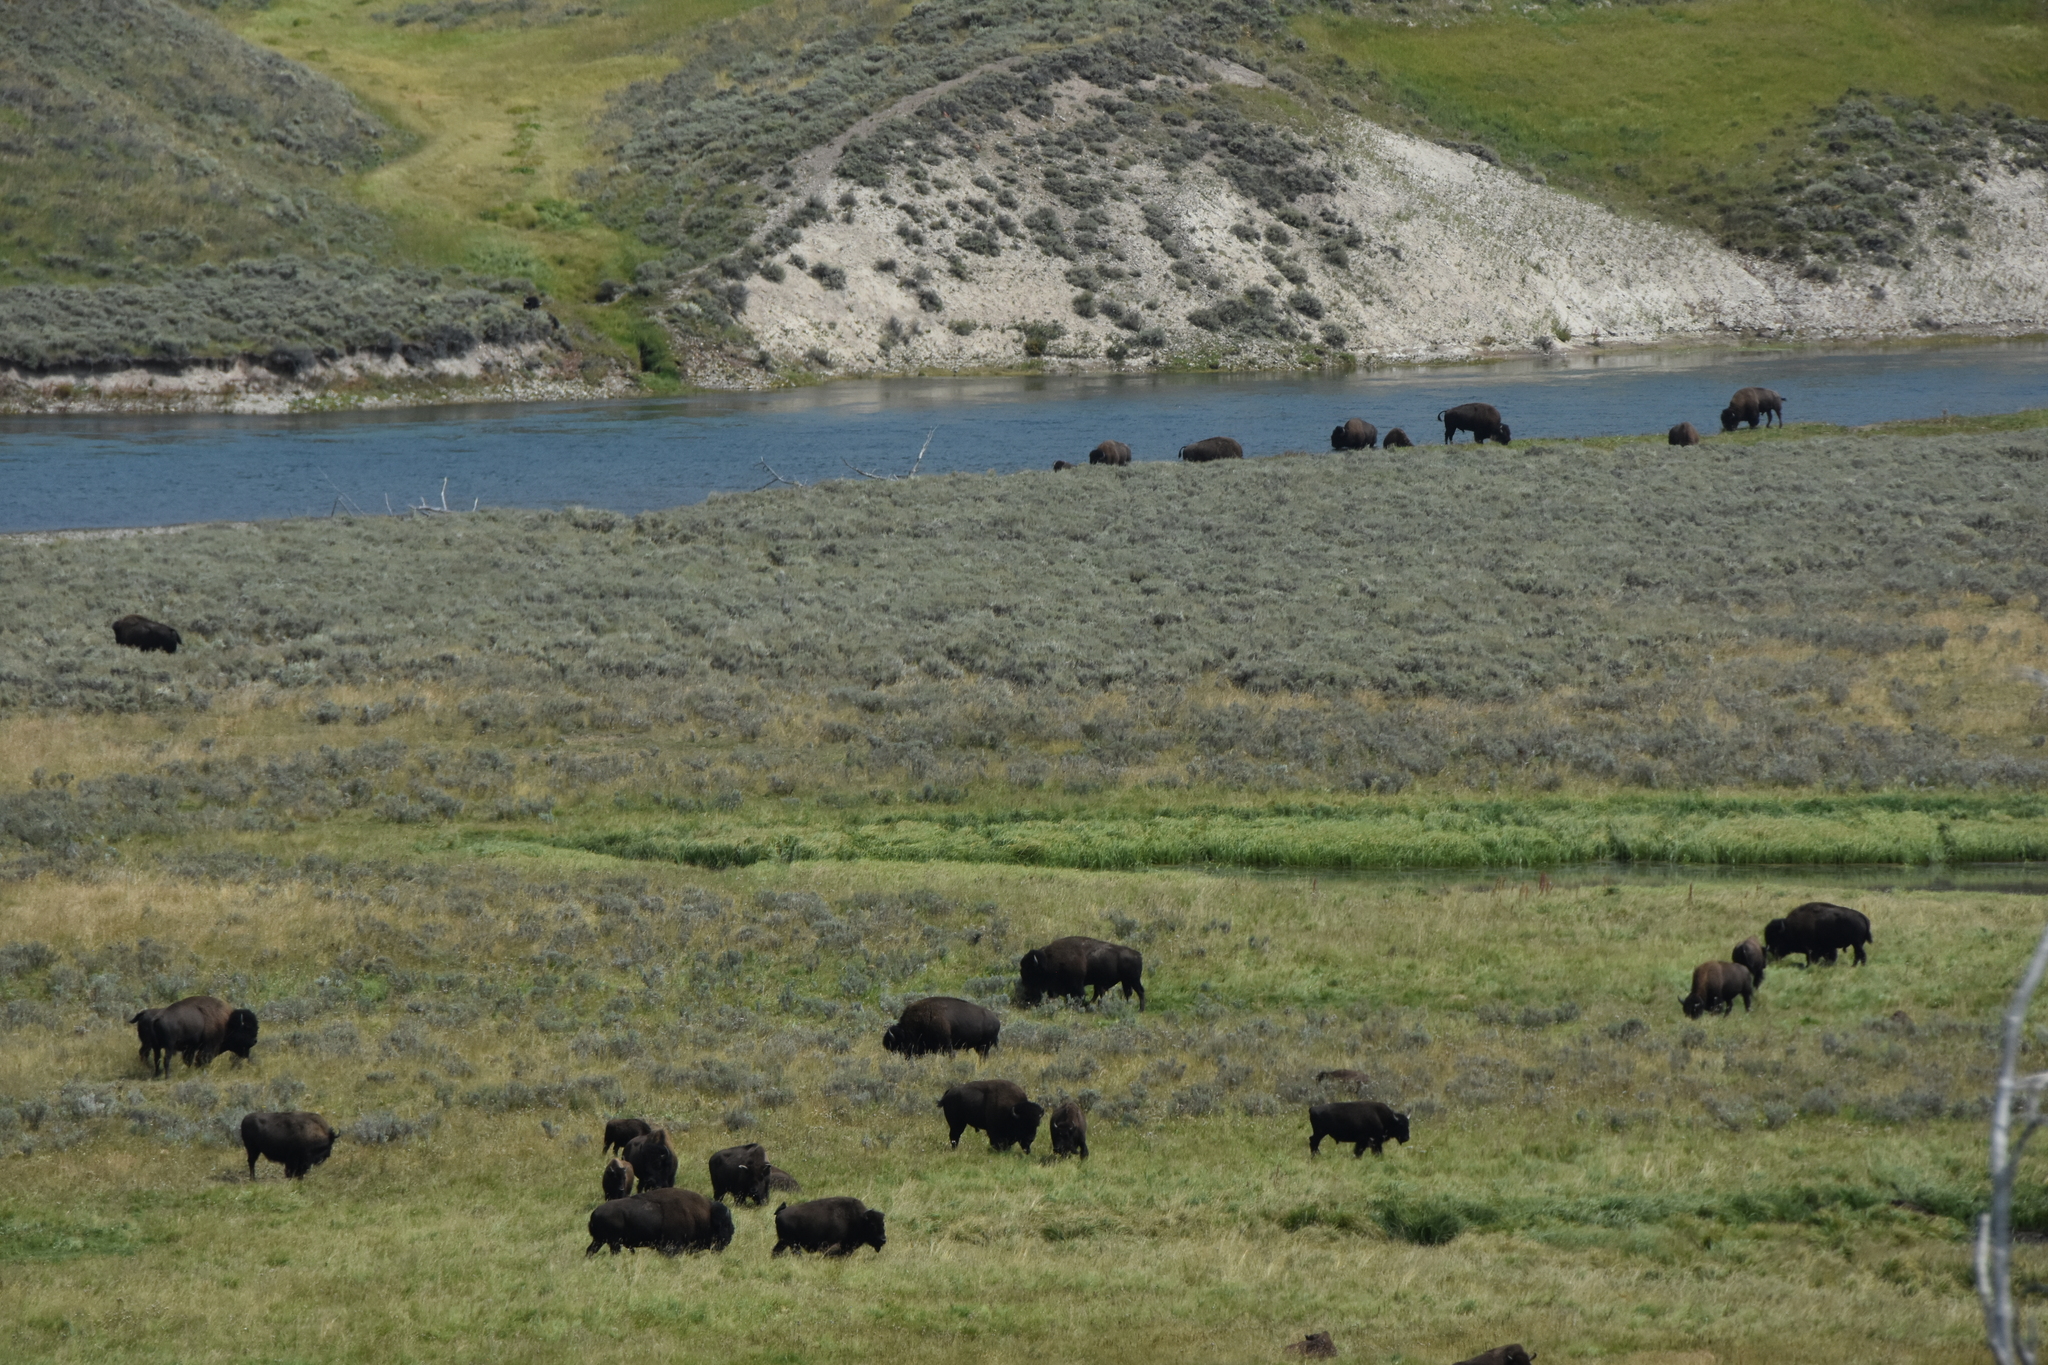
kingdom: Animalia
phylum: Chordata
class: Mammalia
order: Artiodactyla
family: Bovidae
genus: Bison
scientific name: Bison bison
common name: American bison
